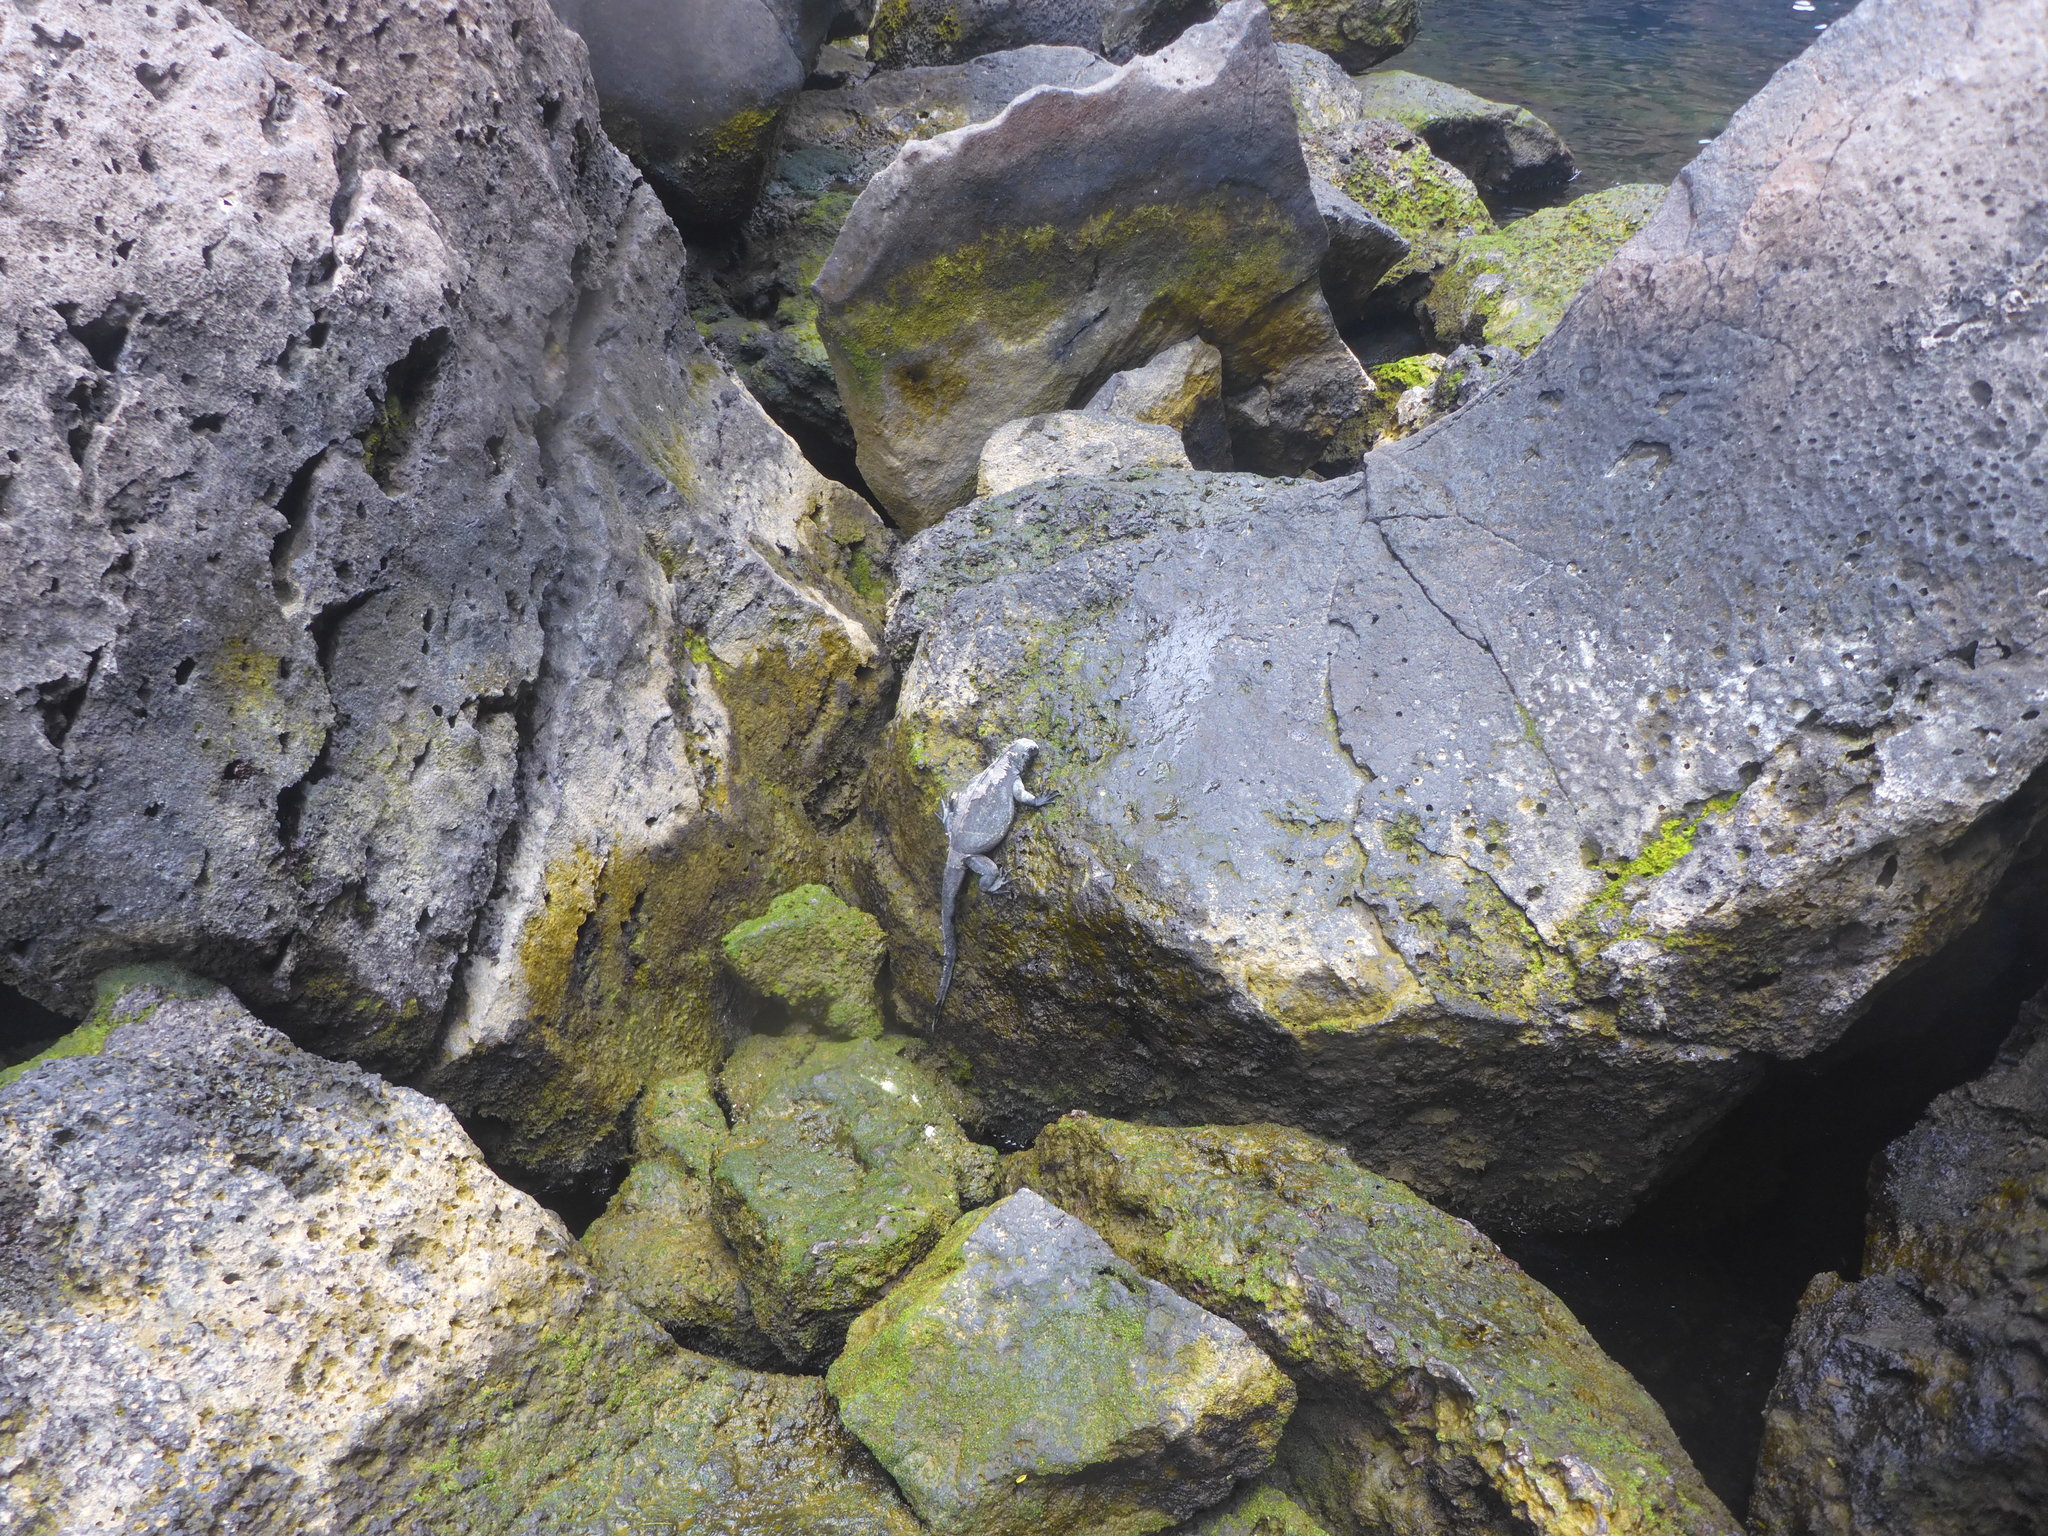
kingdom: Animalia
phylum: Chordata
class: Squamata
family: Iguanidae
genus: Amblyrhynchus
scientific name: Amblyrhynchus cristatus
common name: Marine iguana
